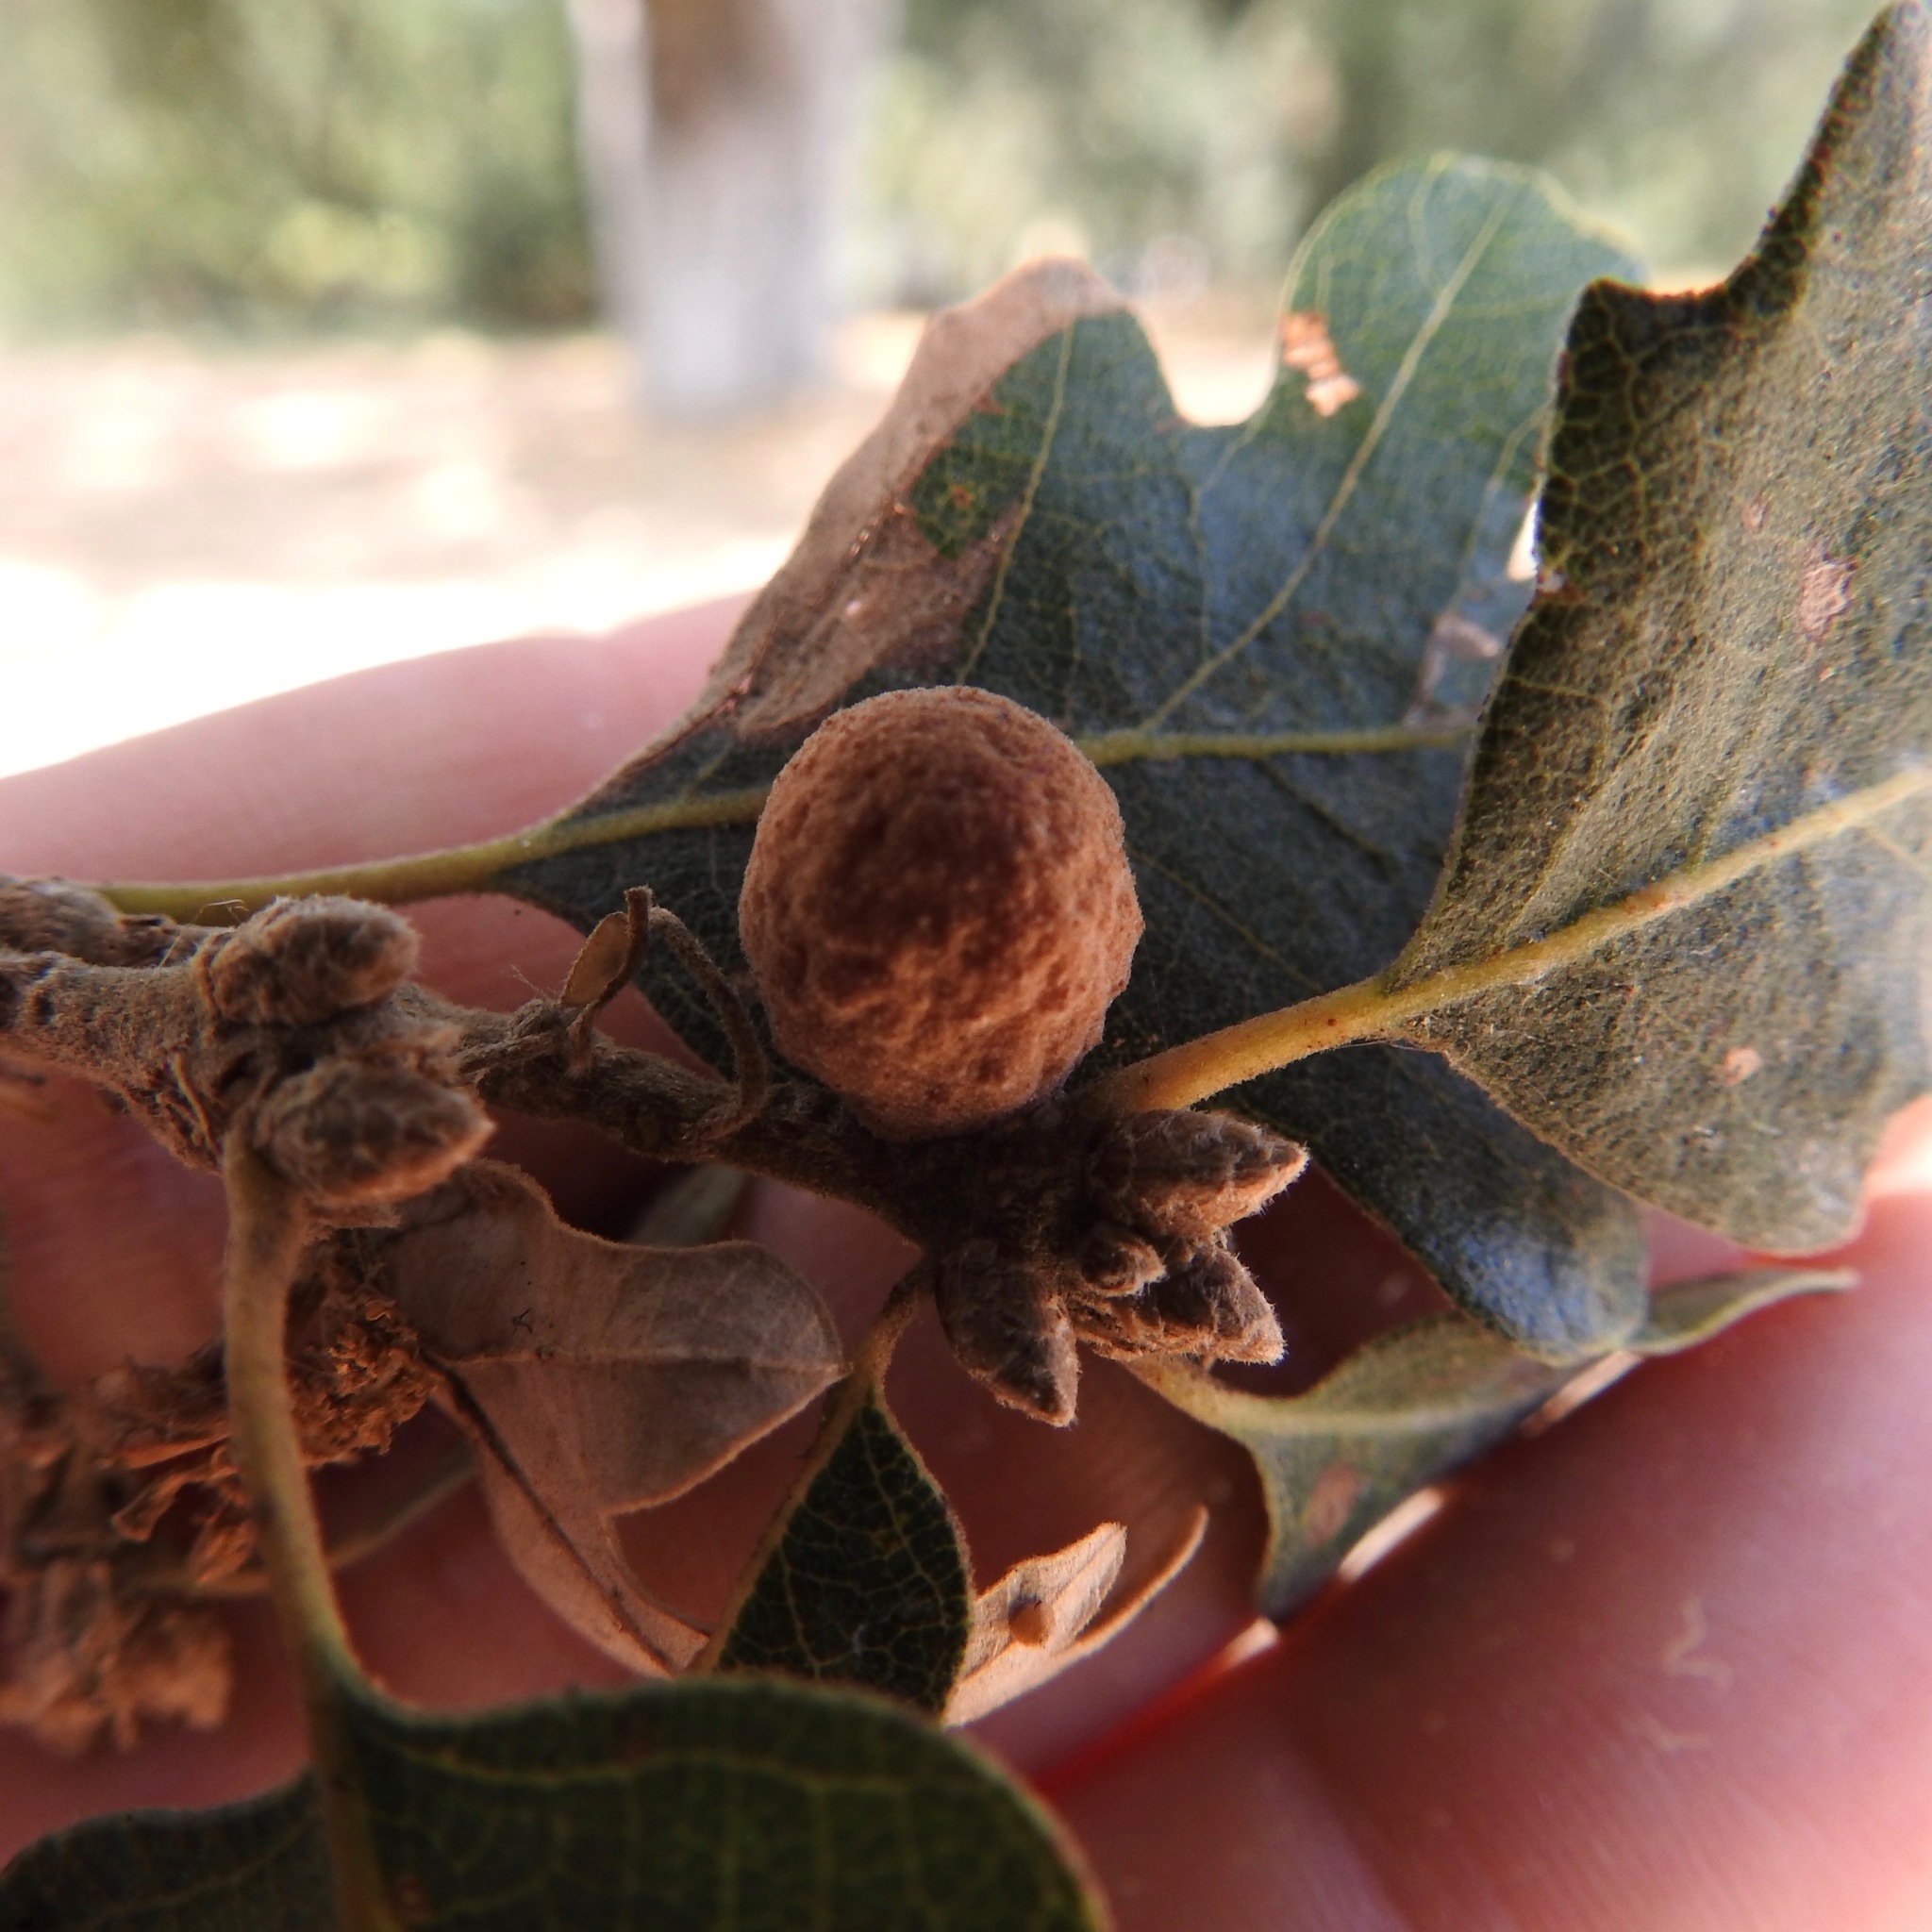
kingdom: Animalia
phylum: Arthropoda
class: Insecta
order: Hymenoptera
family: Cynipidae
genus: Cynips
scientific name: Cynips conspicua
